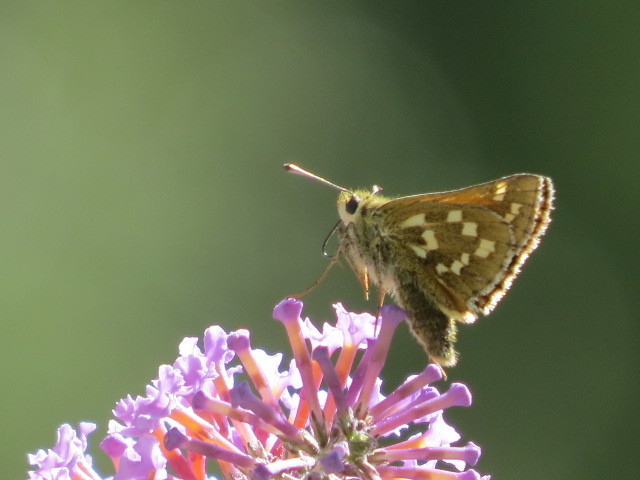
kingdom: Animalia
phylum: Arthropoda
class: Insecta
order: Lepidoptera
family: Hesperiidae
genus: Hesperia
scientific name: Hesperia comma
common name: Common branded skipper
